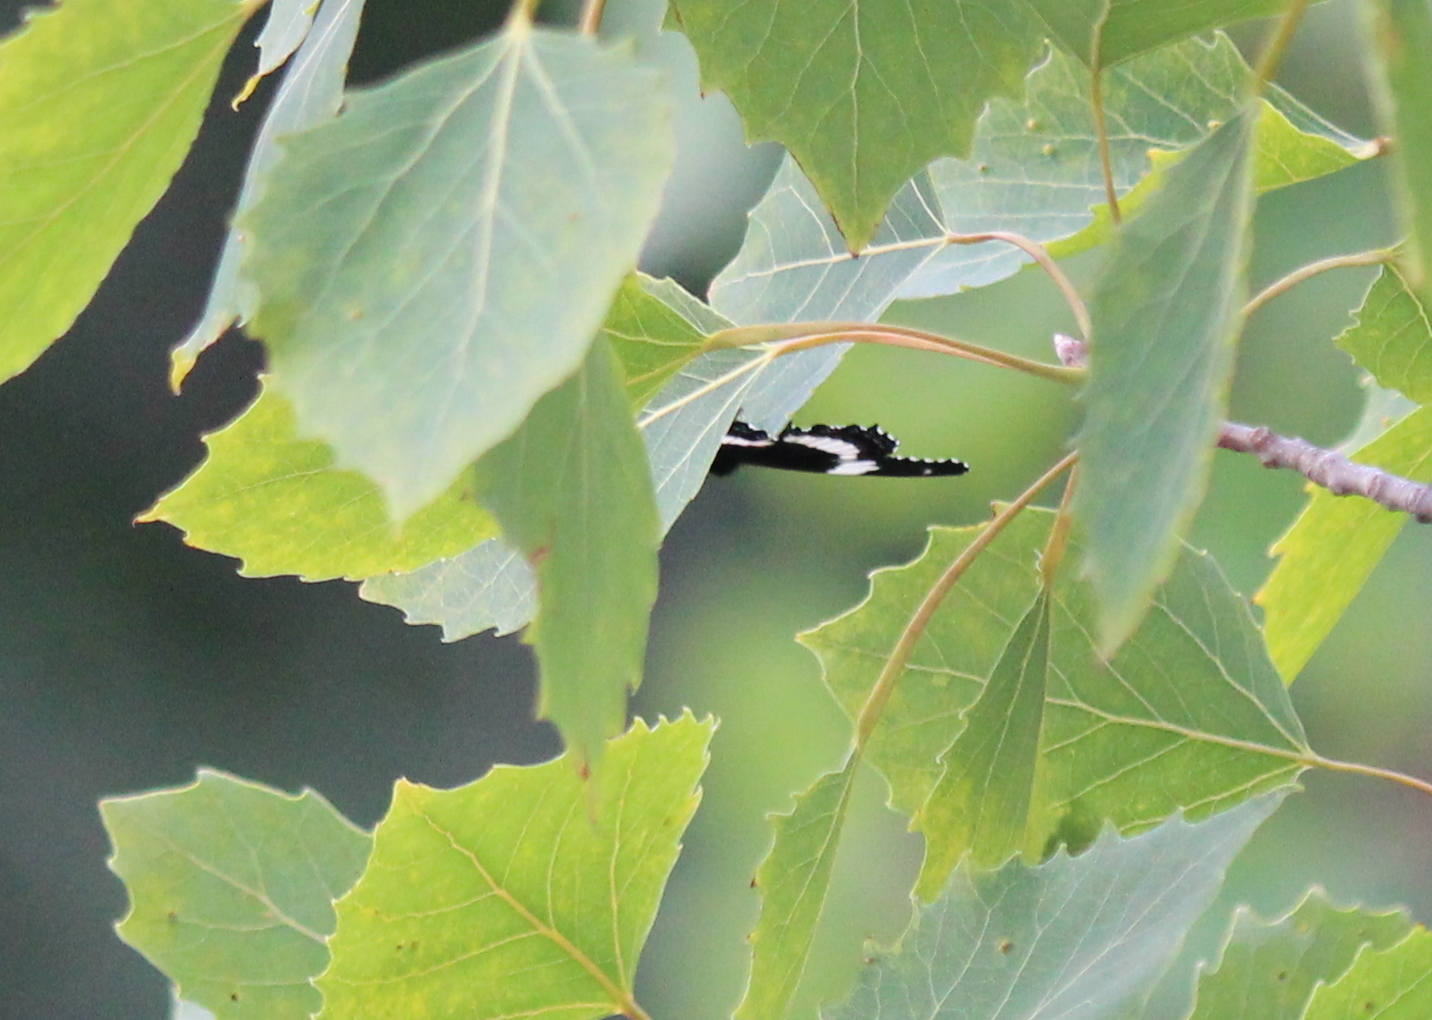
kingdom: Animalia
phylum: Arthropoda
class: Insecta
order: Lepidoptera
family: Nymphalidae
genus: Limenitis
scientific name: Limenitis arthemis
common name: Red-spotted admiral
